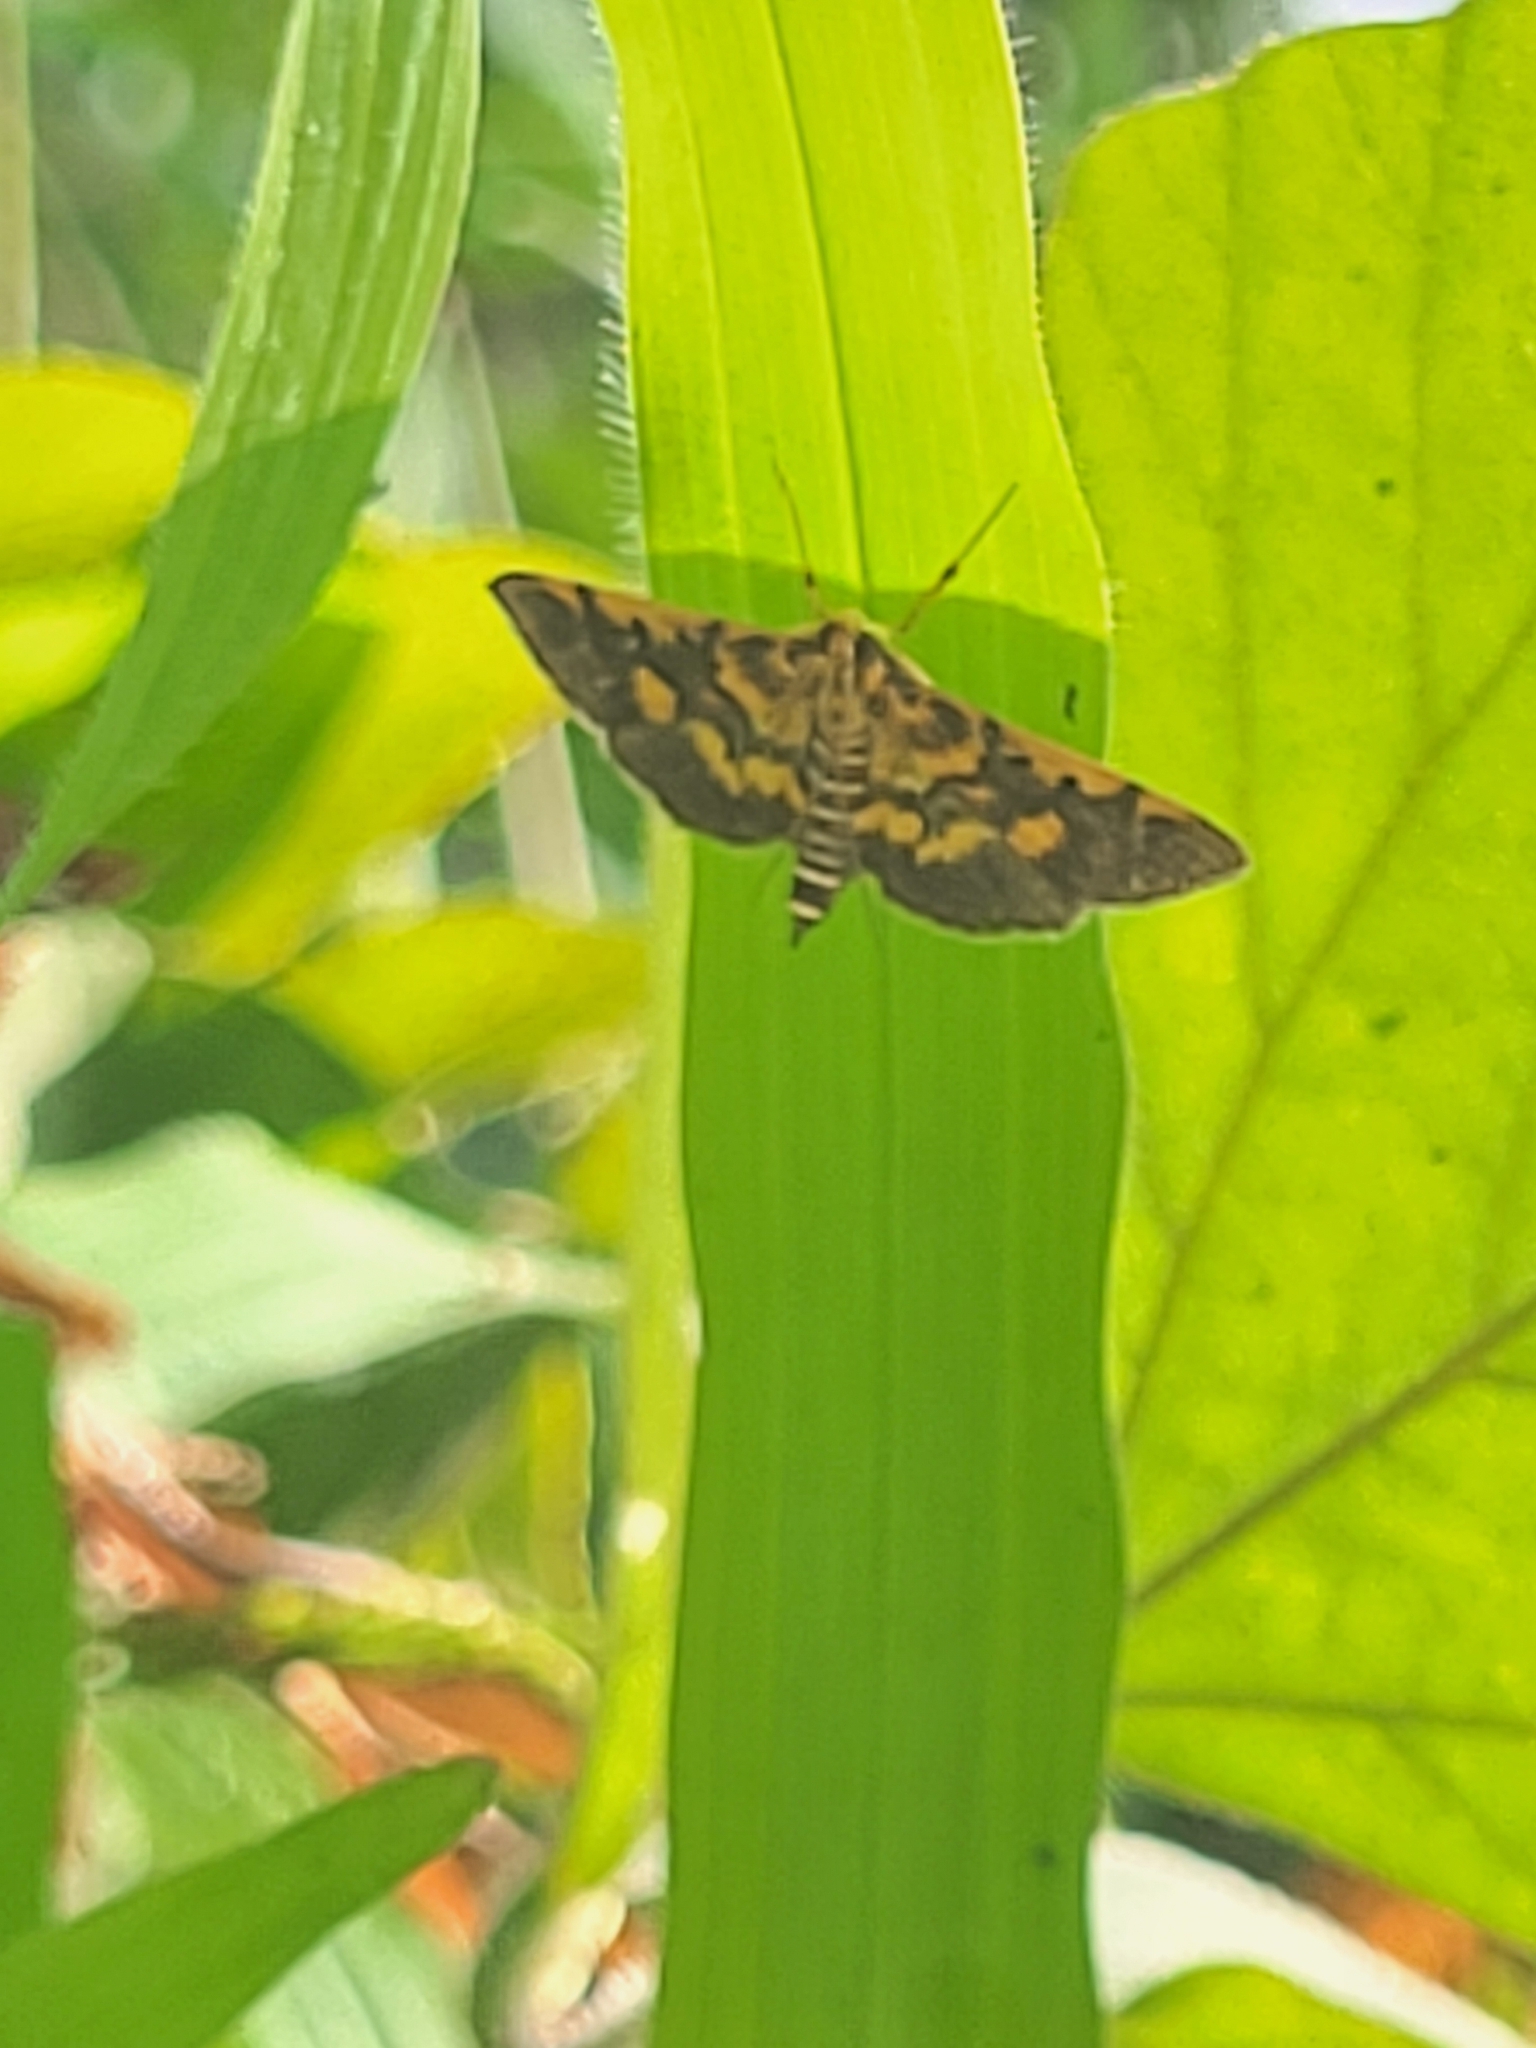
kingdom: Animalia
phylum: Arthropoda
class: Insecta
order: Lepidoptera
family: Crambidae
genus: Omiodes
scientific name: Omiodes diemenalis
